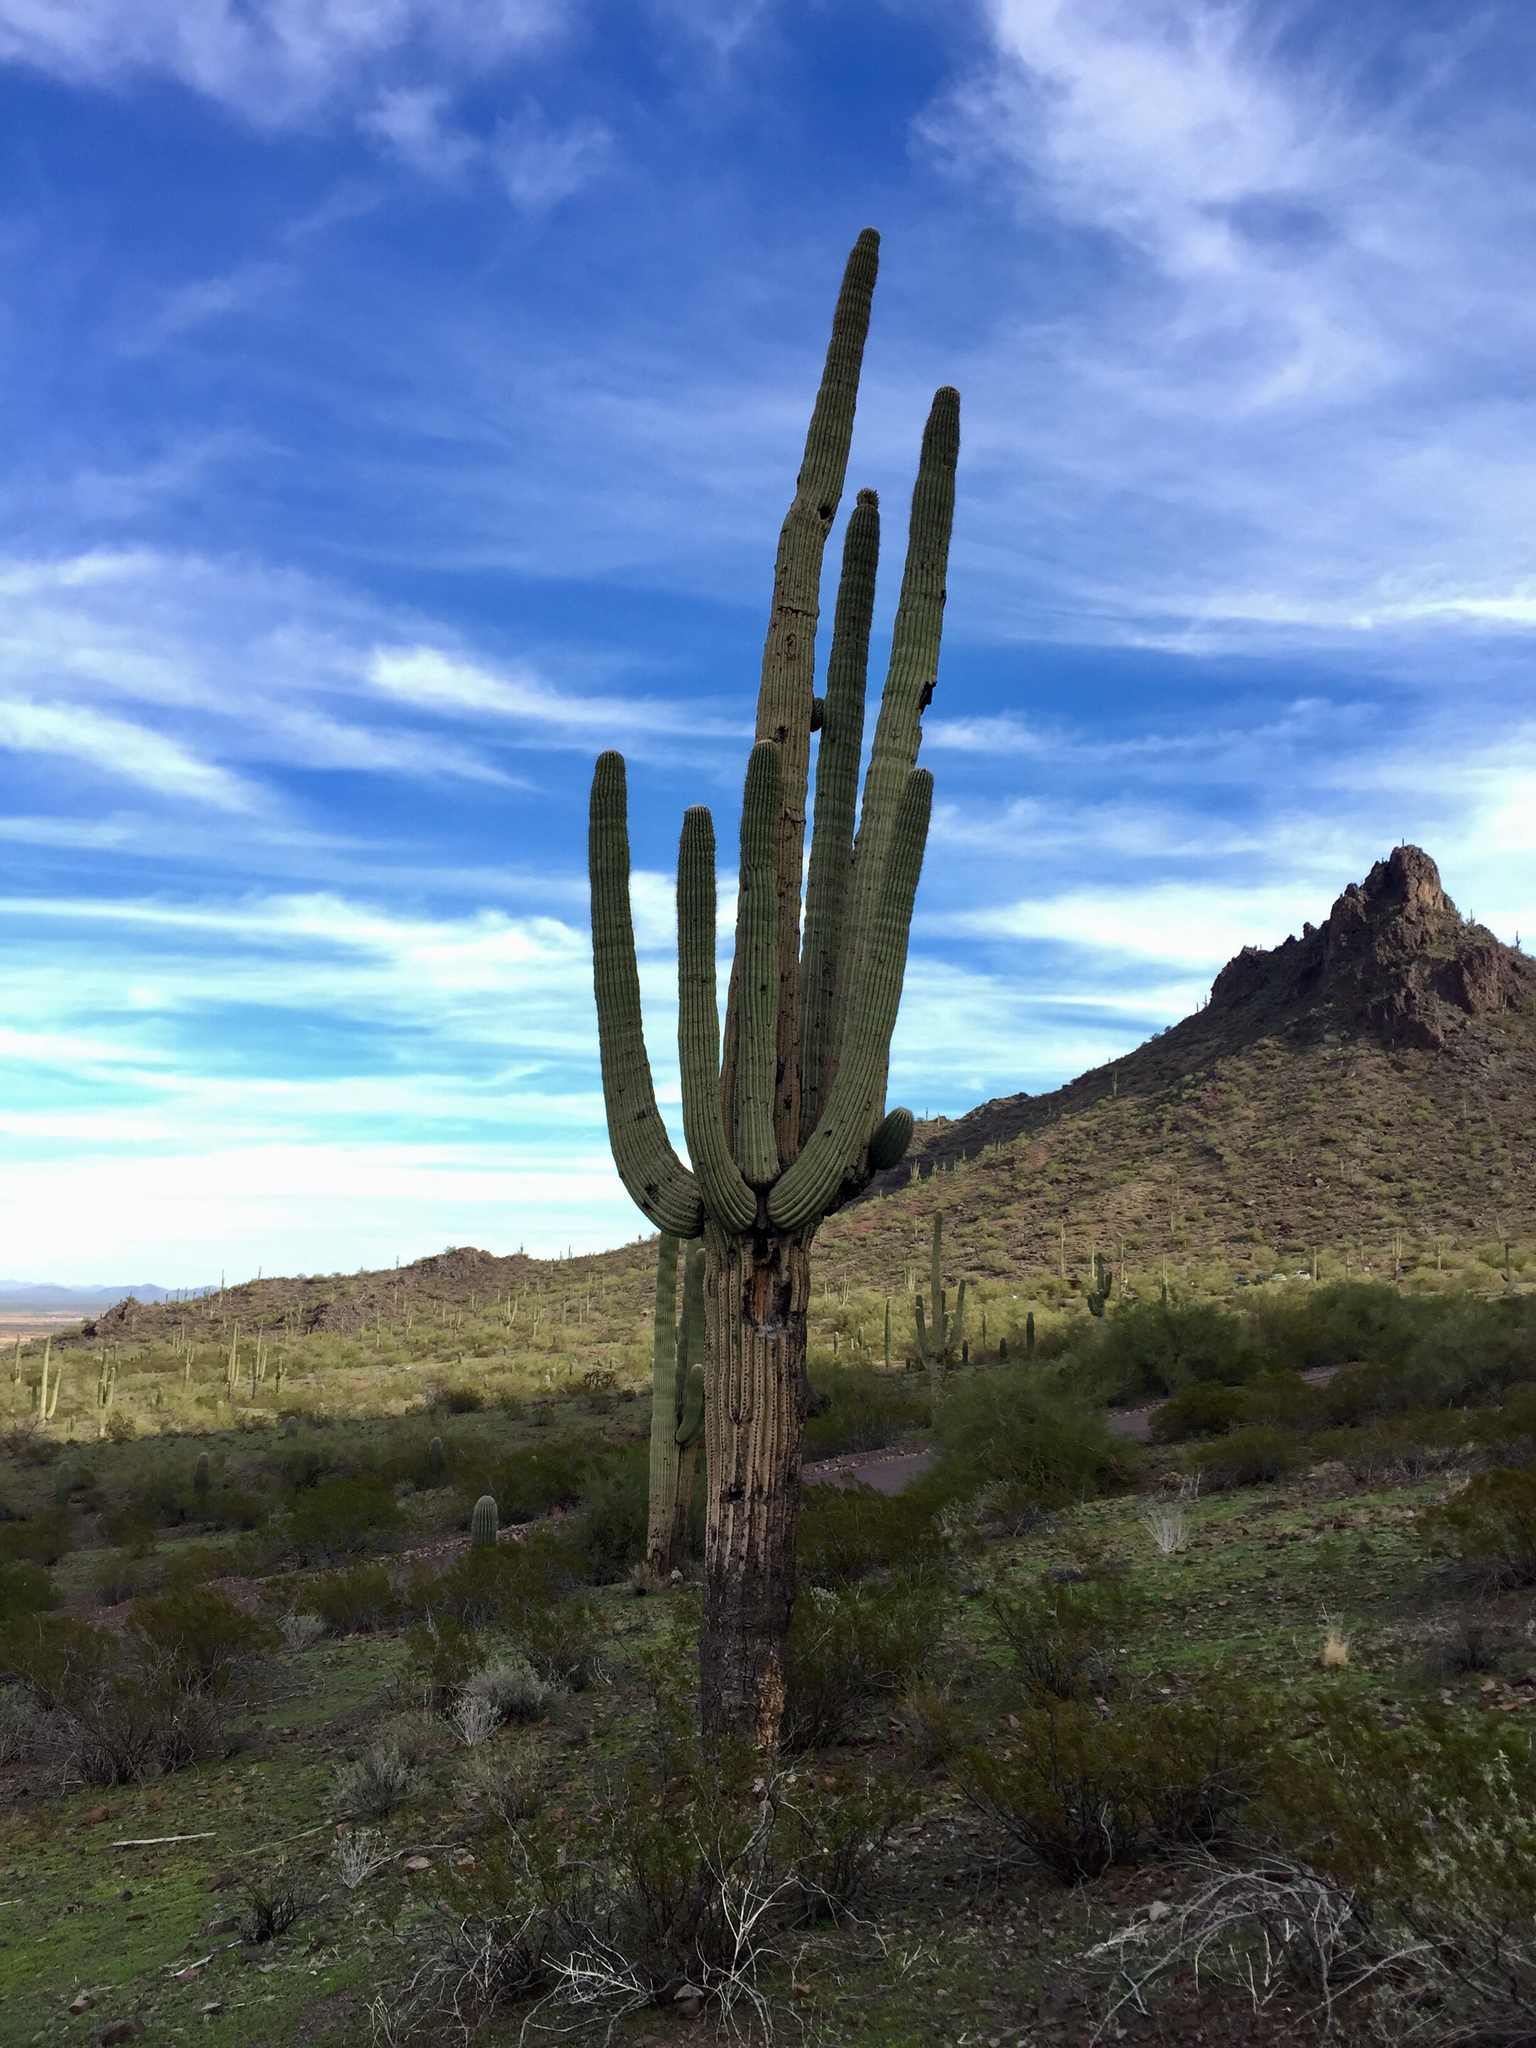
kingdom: Plantae
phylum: Tracheophyta
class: Magnoliopsida
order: Caryophyllales
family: Cactaceae
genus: Carnegiea
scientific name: Carnegiea gigantea
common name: Saguaro
